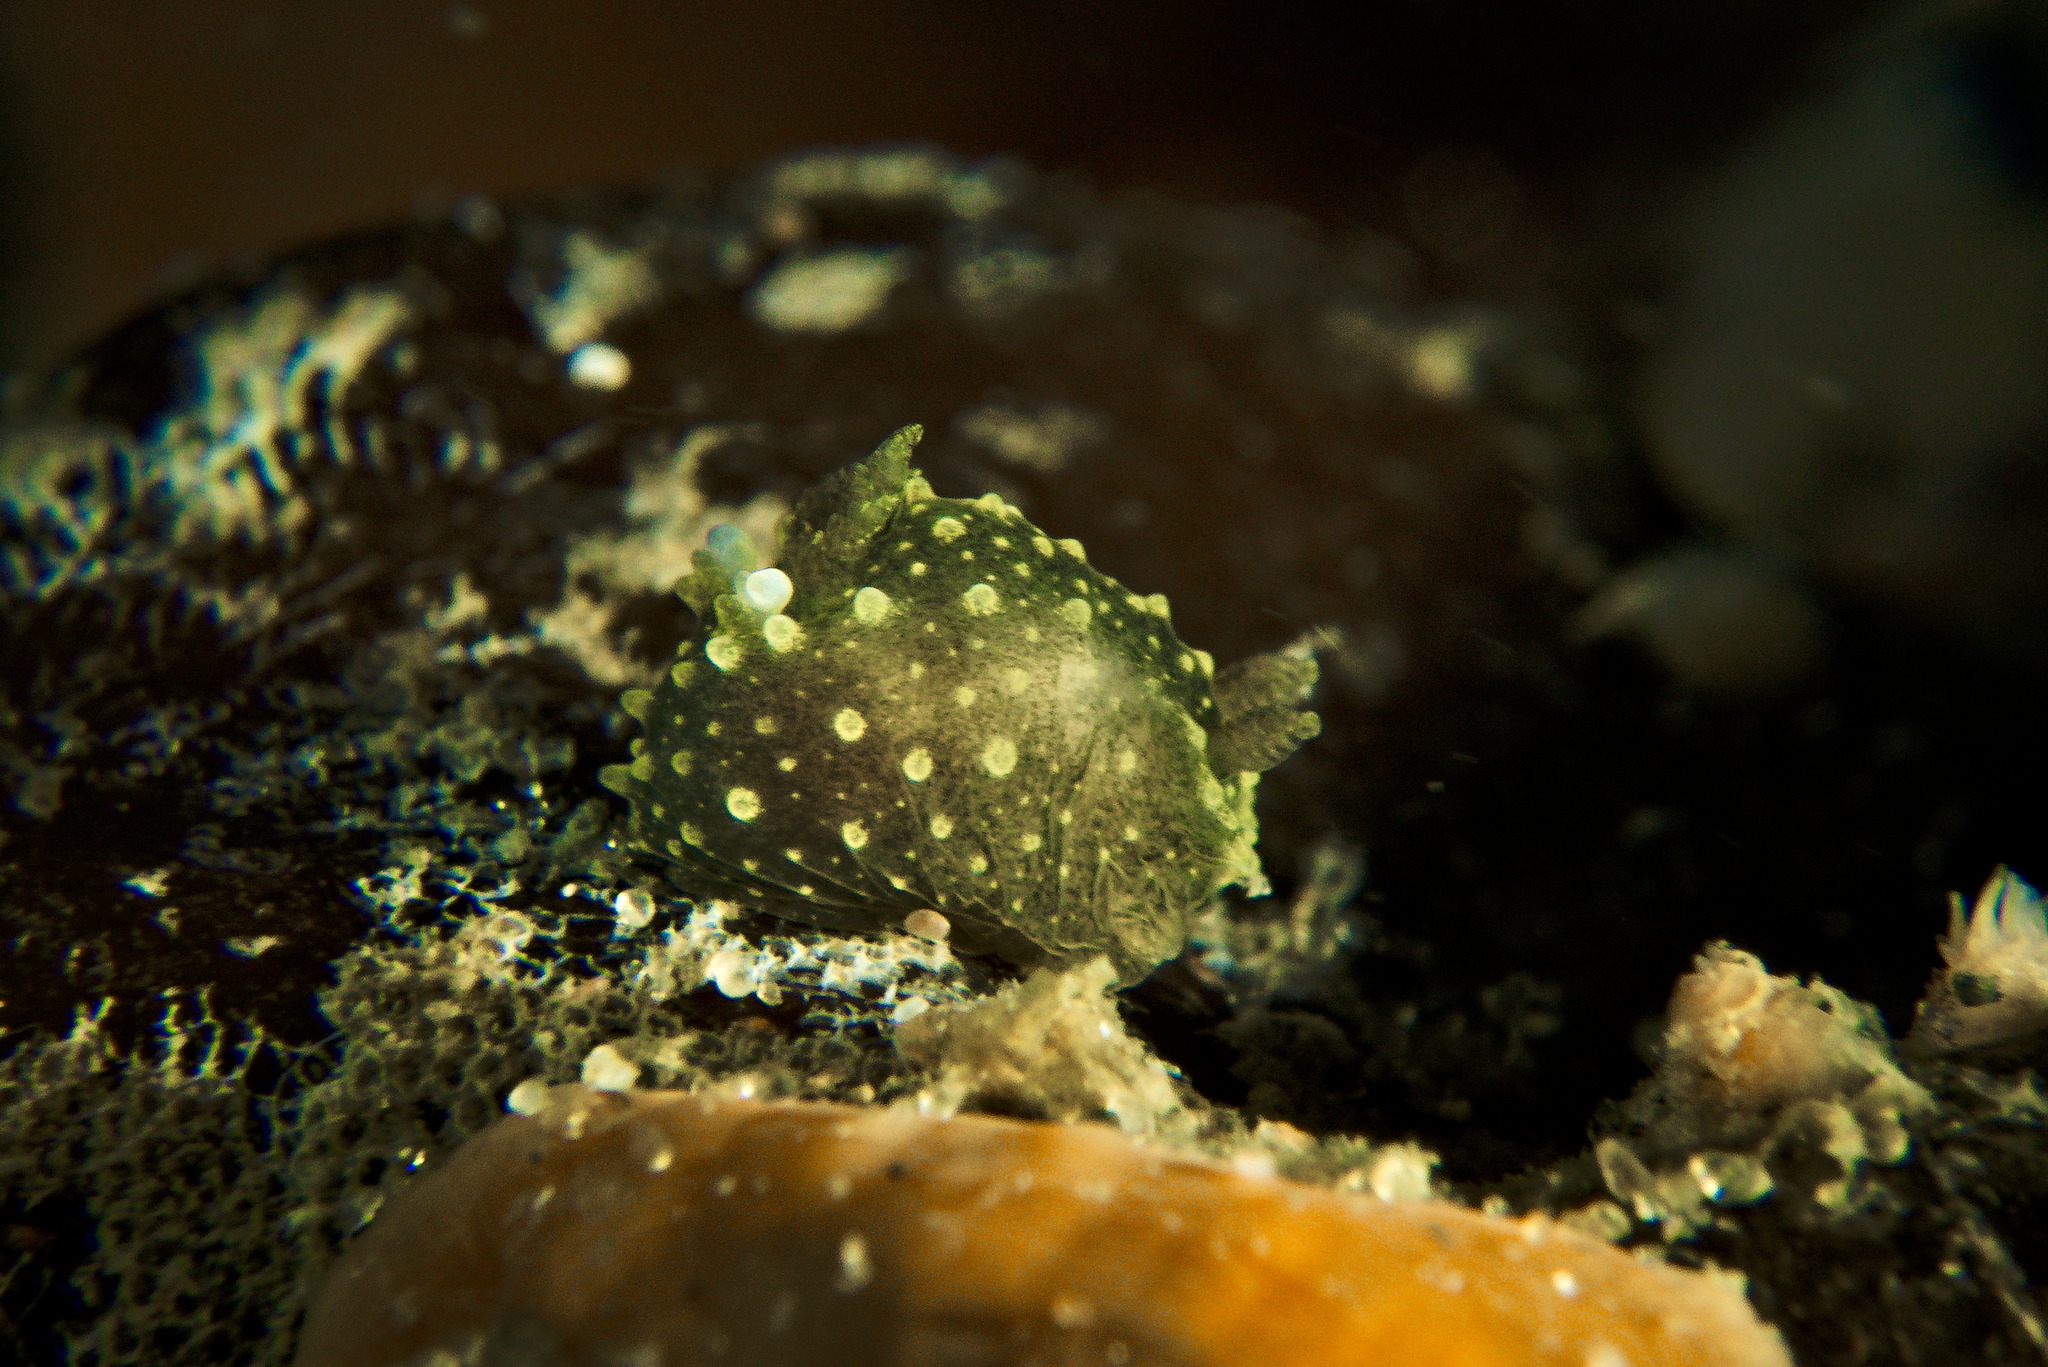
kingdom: Animalia
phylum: Mollusca
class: Gastropoda
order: Nudibranchia
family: Polyceridae
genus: Palio
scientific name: Palio dubia
